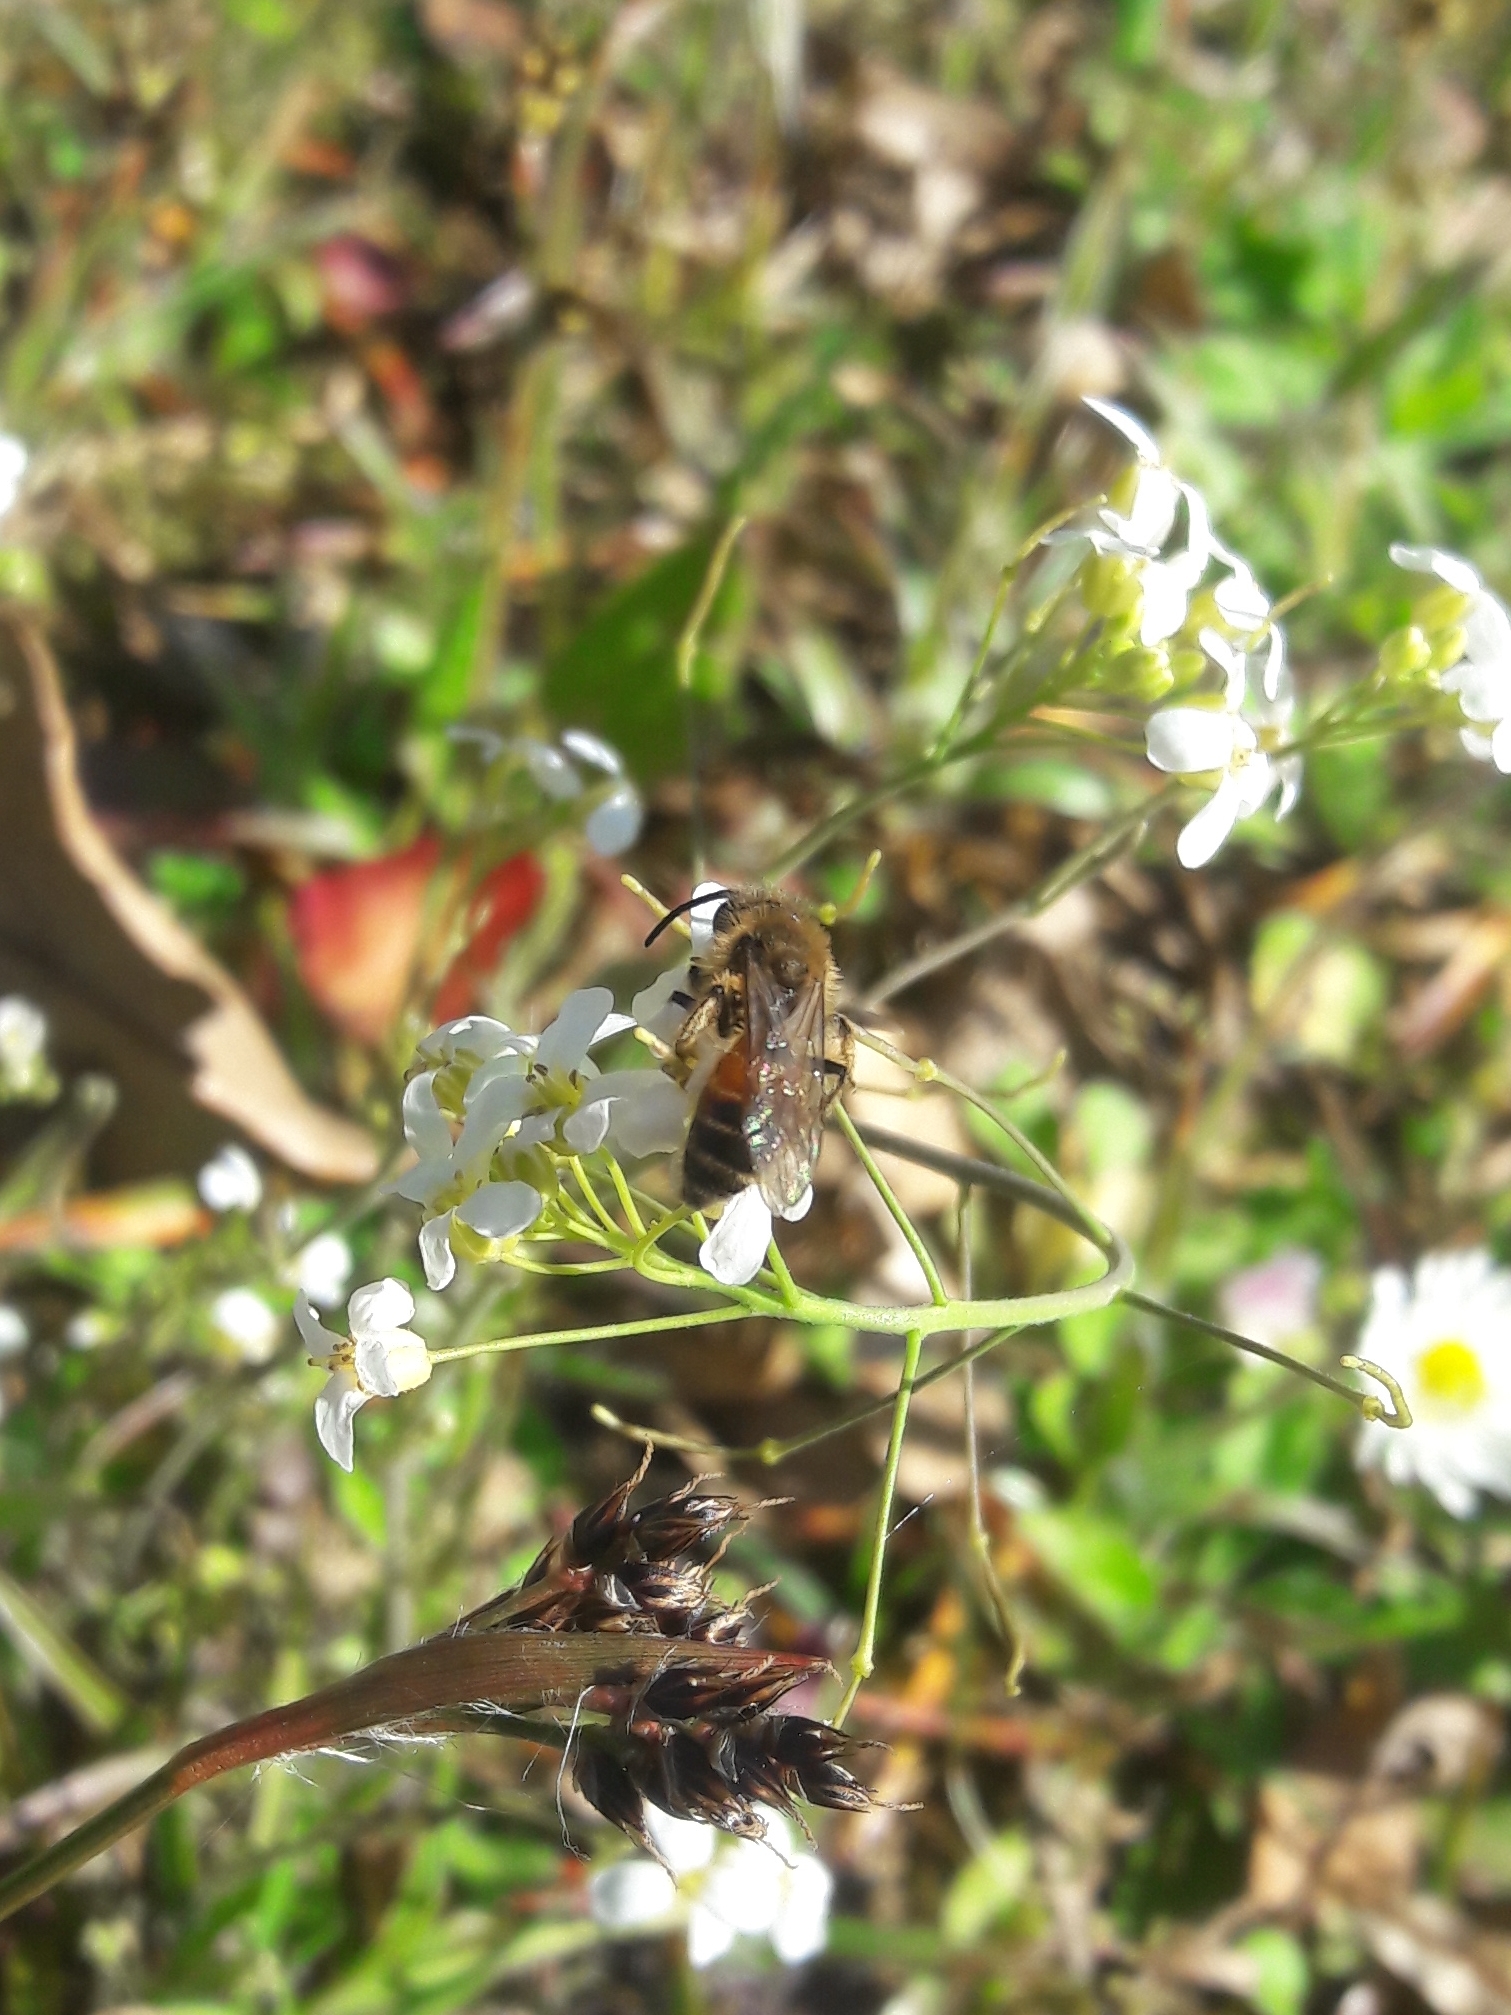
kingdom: Animalia
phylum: Arthropoda
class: Insecta
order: Hymenoptera
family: Andrenidae
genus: Andrena
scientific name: Andrena hattorfiana
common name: Large scabious mining bee
